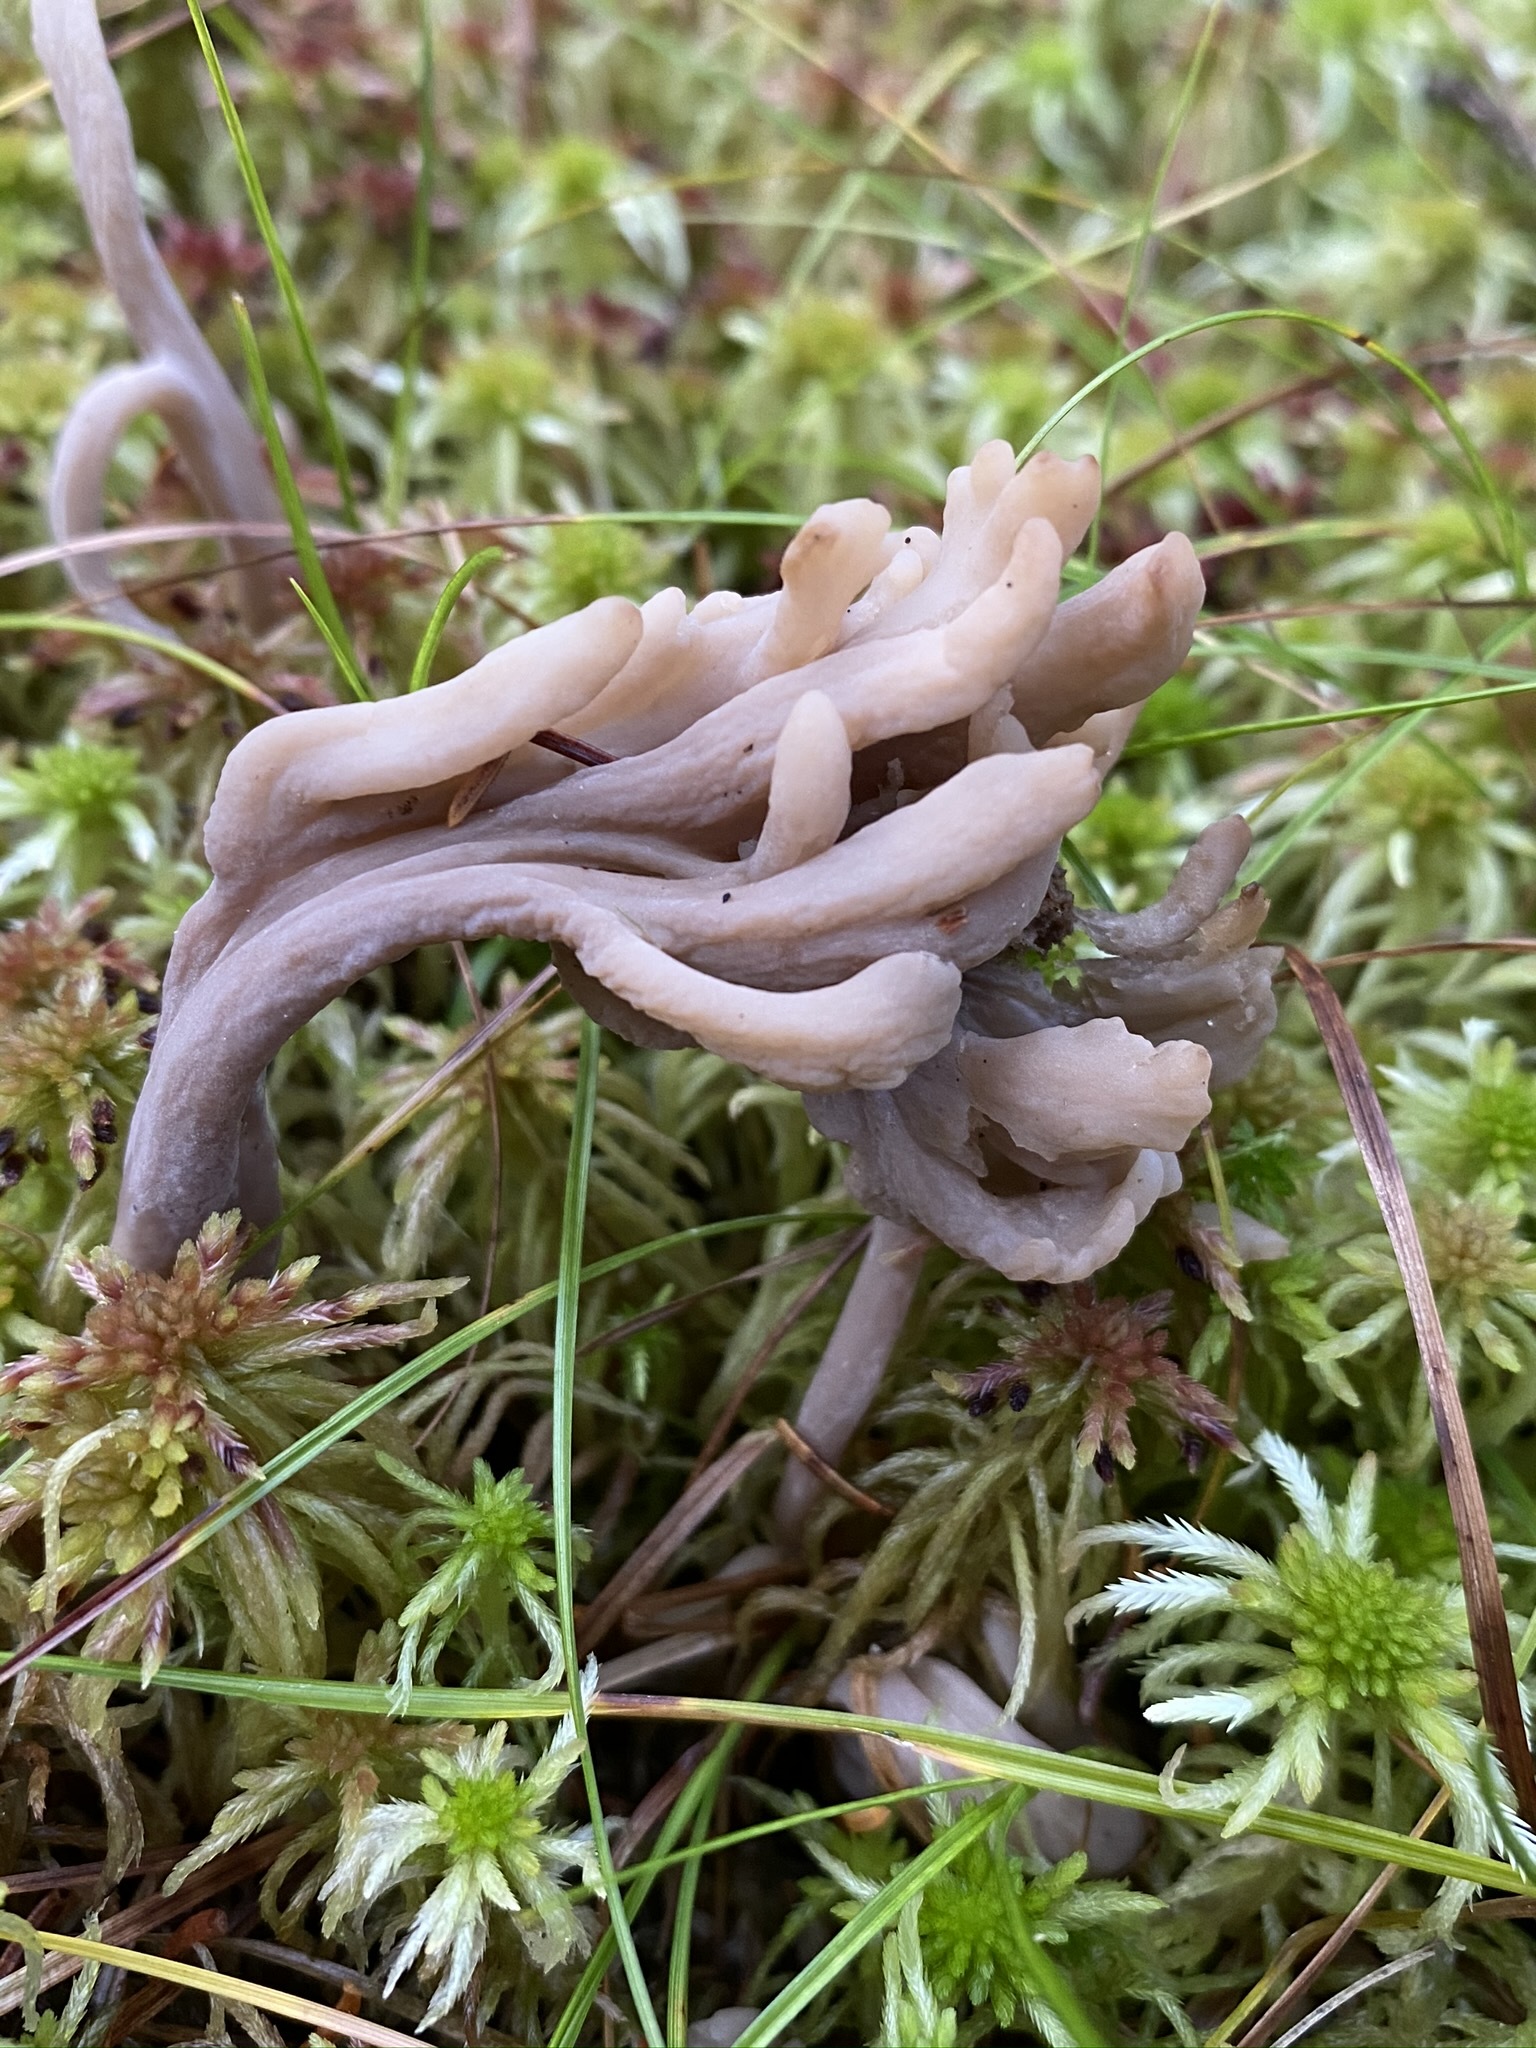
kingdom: Fungi
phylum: Basidiomycota
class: Agaricomycetes
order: Hymenochaetales
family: Rickenellaceae
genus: Alloclavaria
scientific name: Alloclavaria purpurea
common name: Purple spindles
